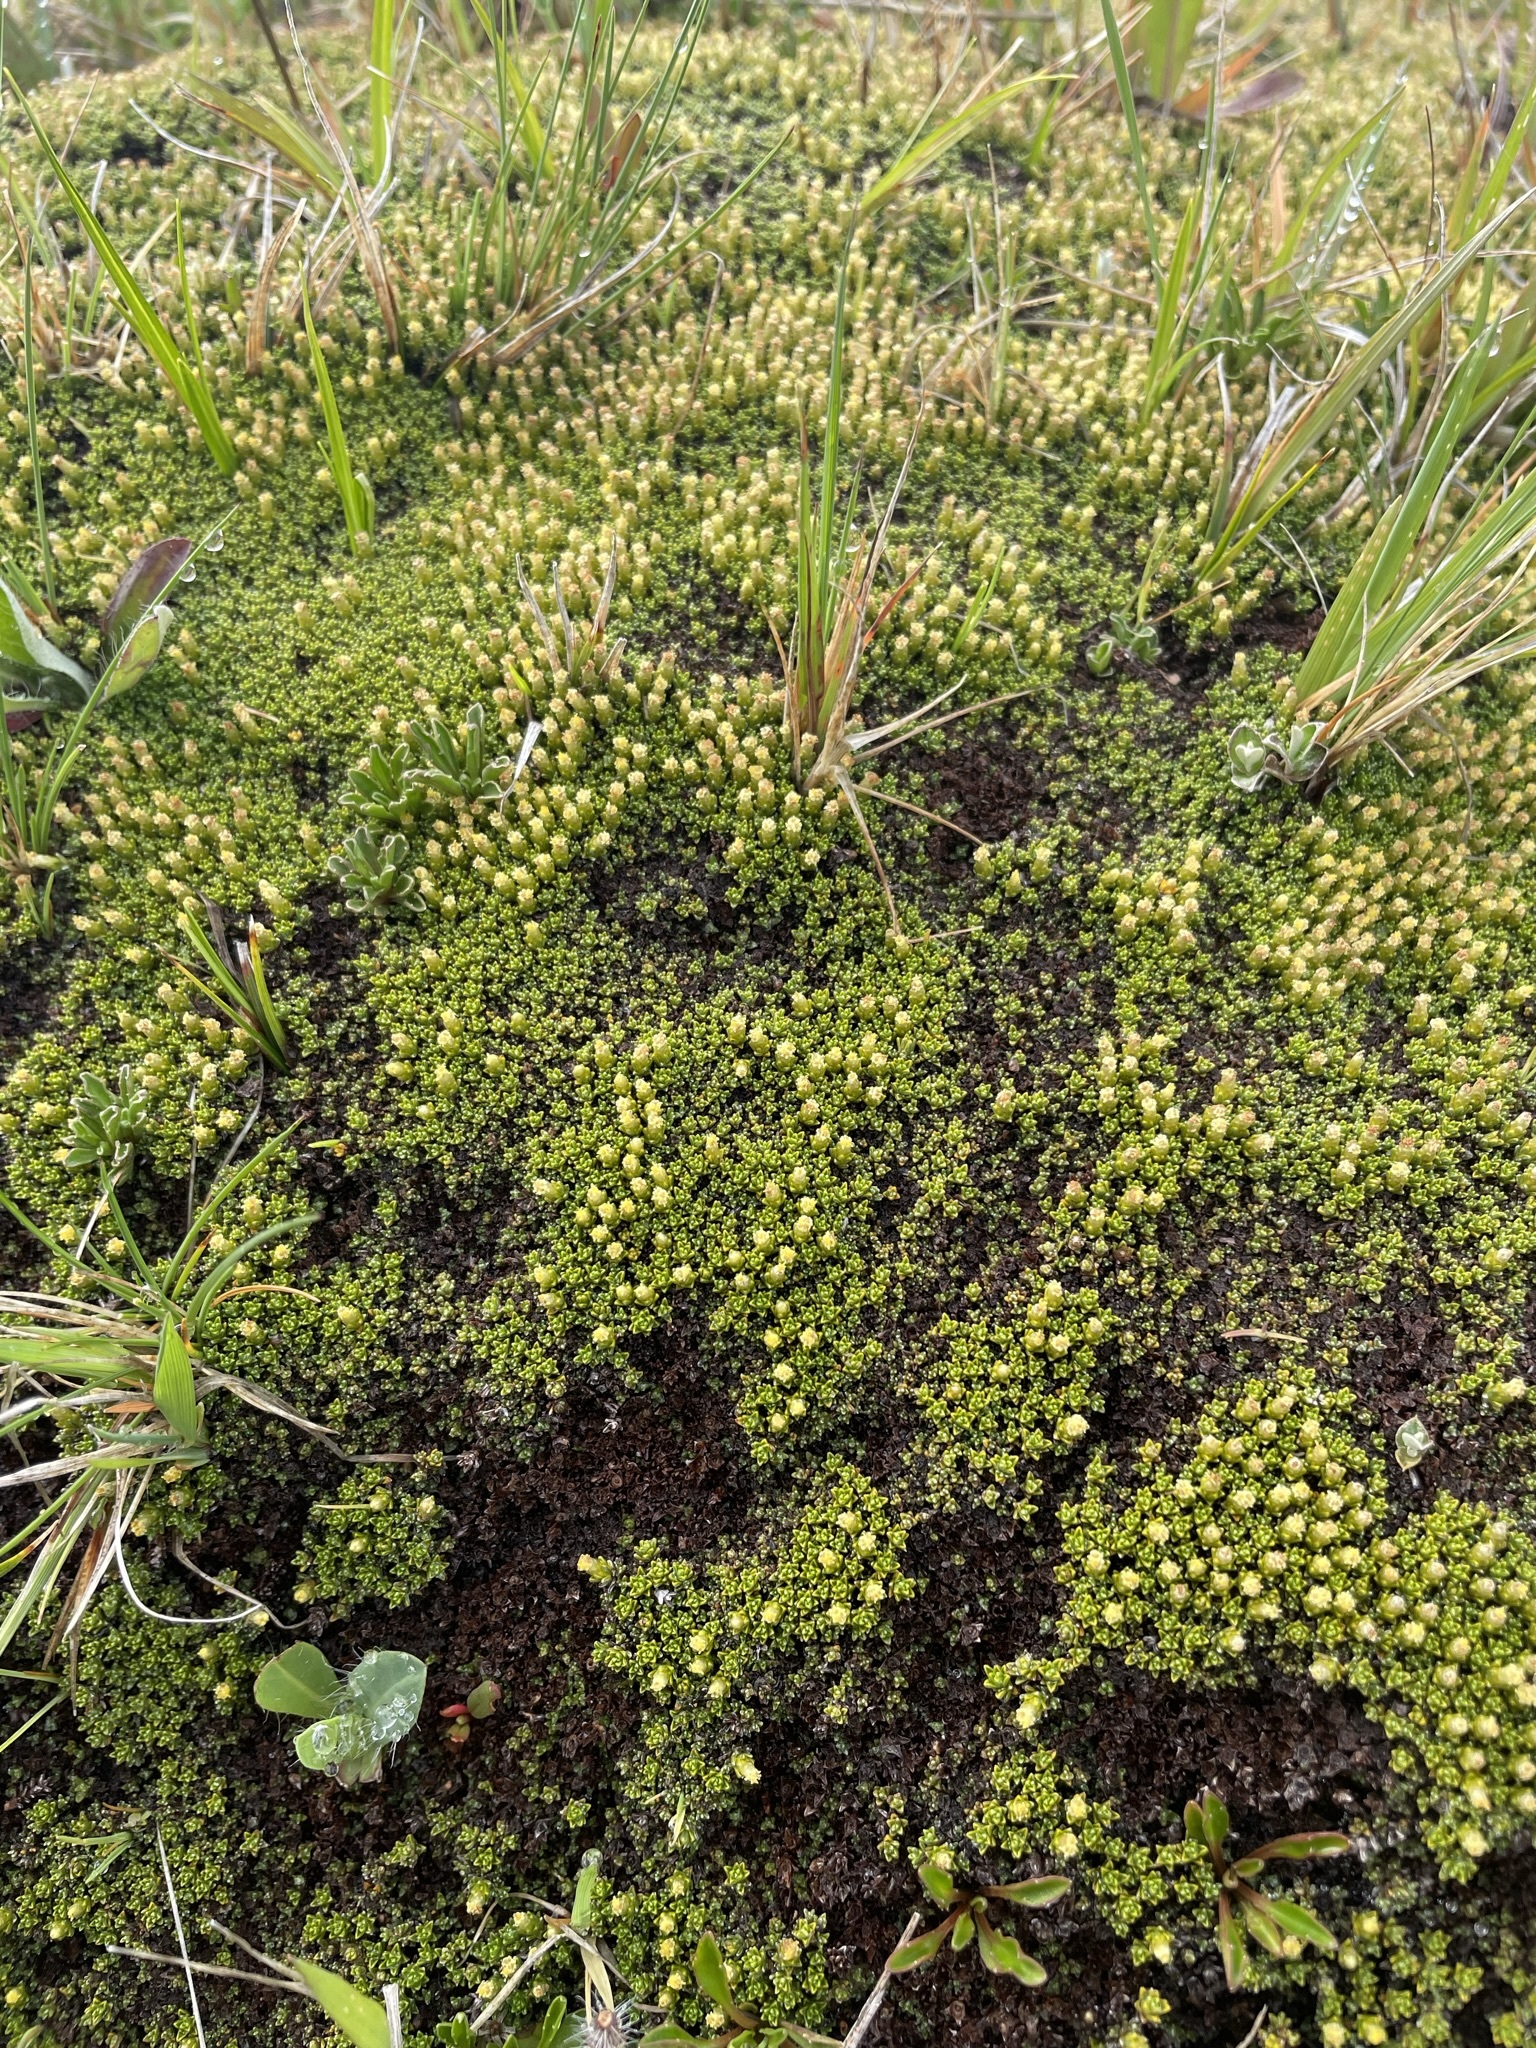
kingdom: Plantae
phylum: Tracheophyta
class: Magnoliopsida
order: Asterales
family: Asteraceae
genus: Raoulia
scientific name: Raoulia subsericea
